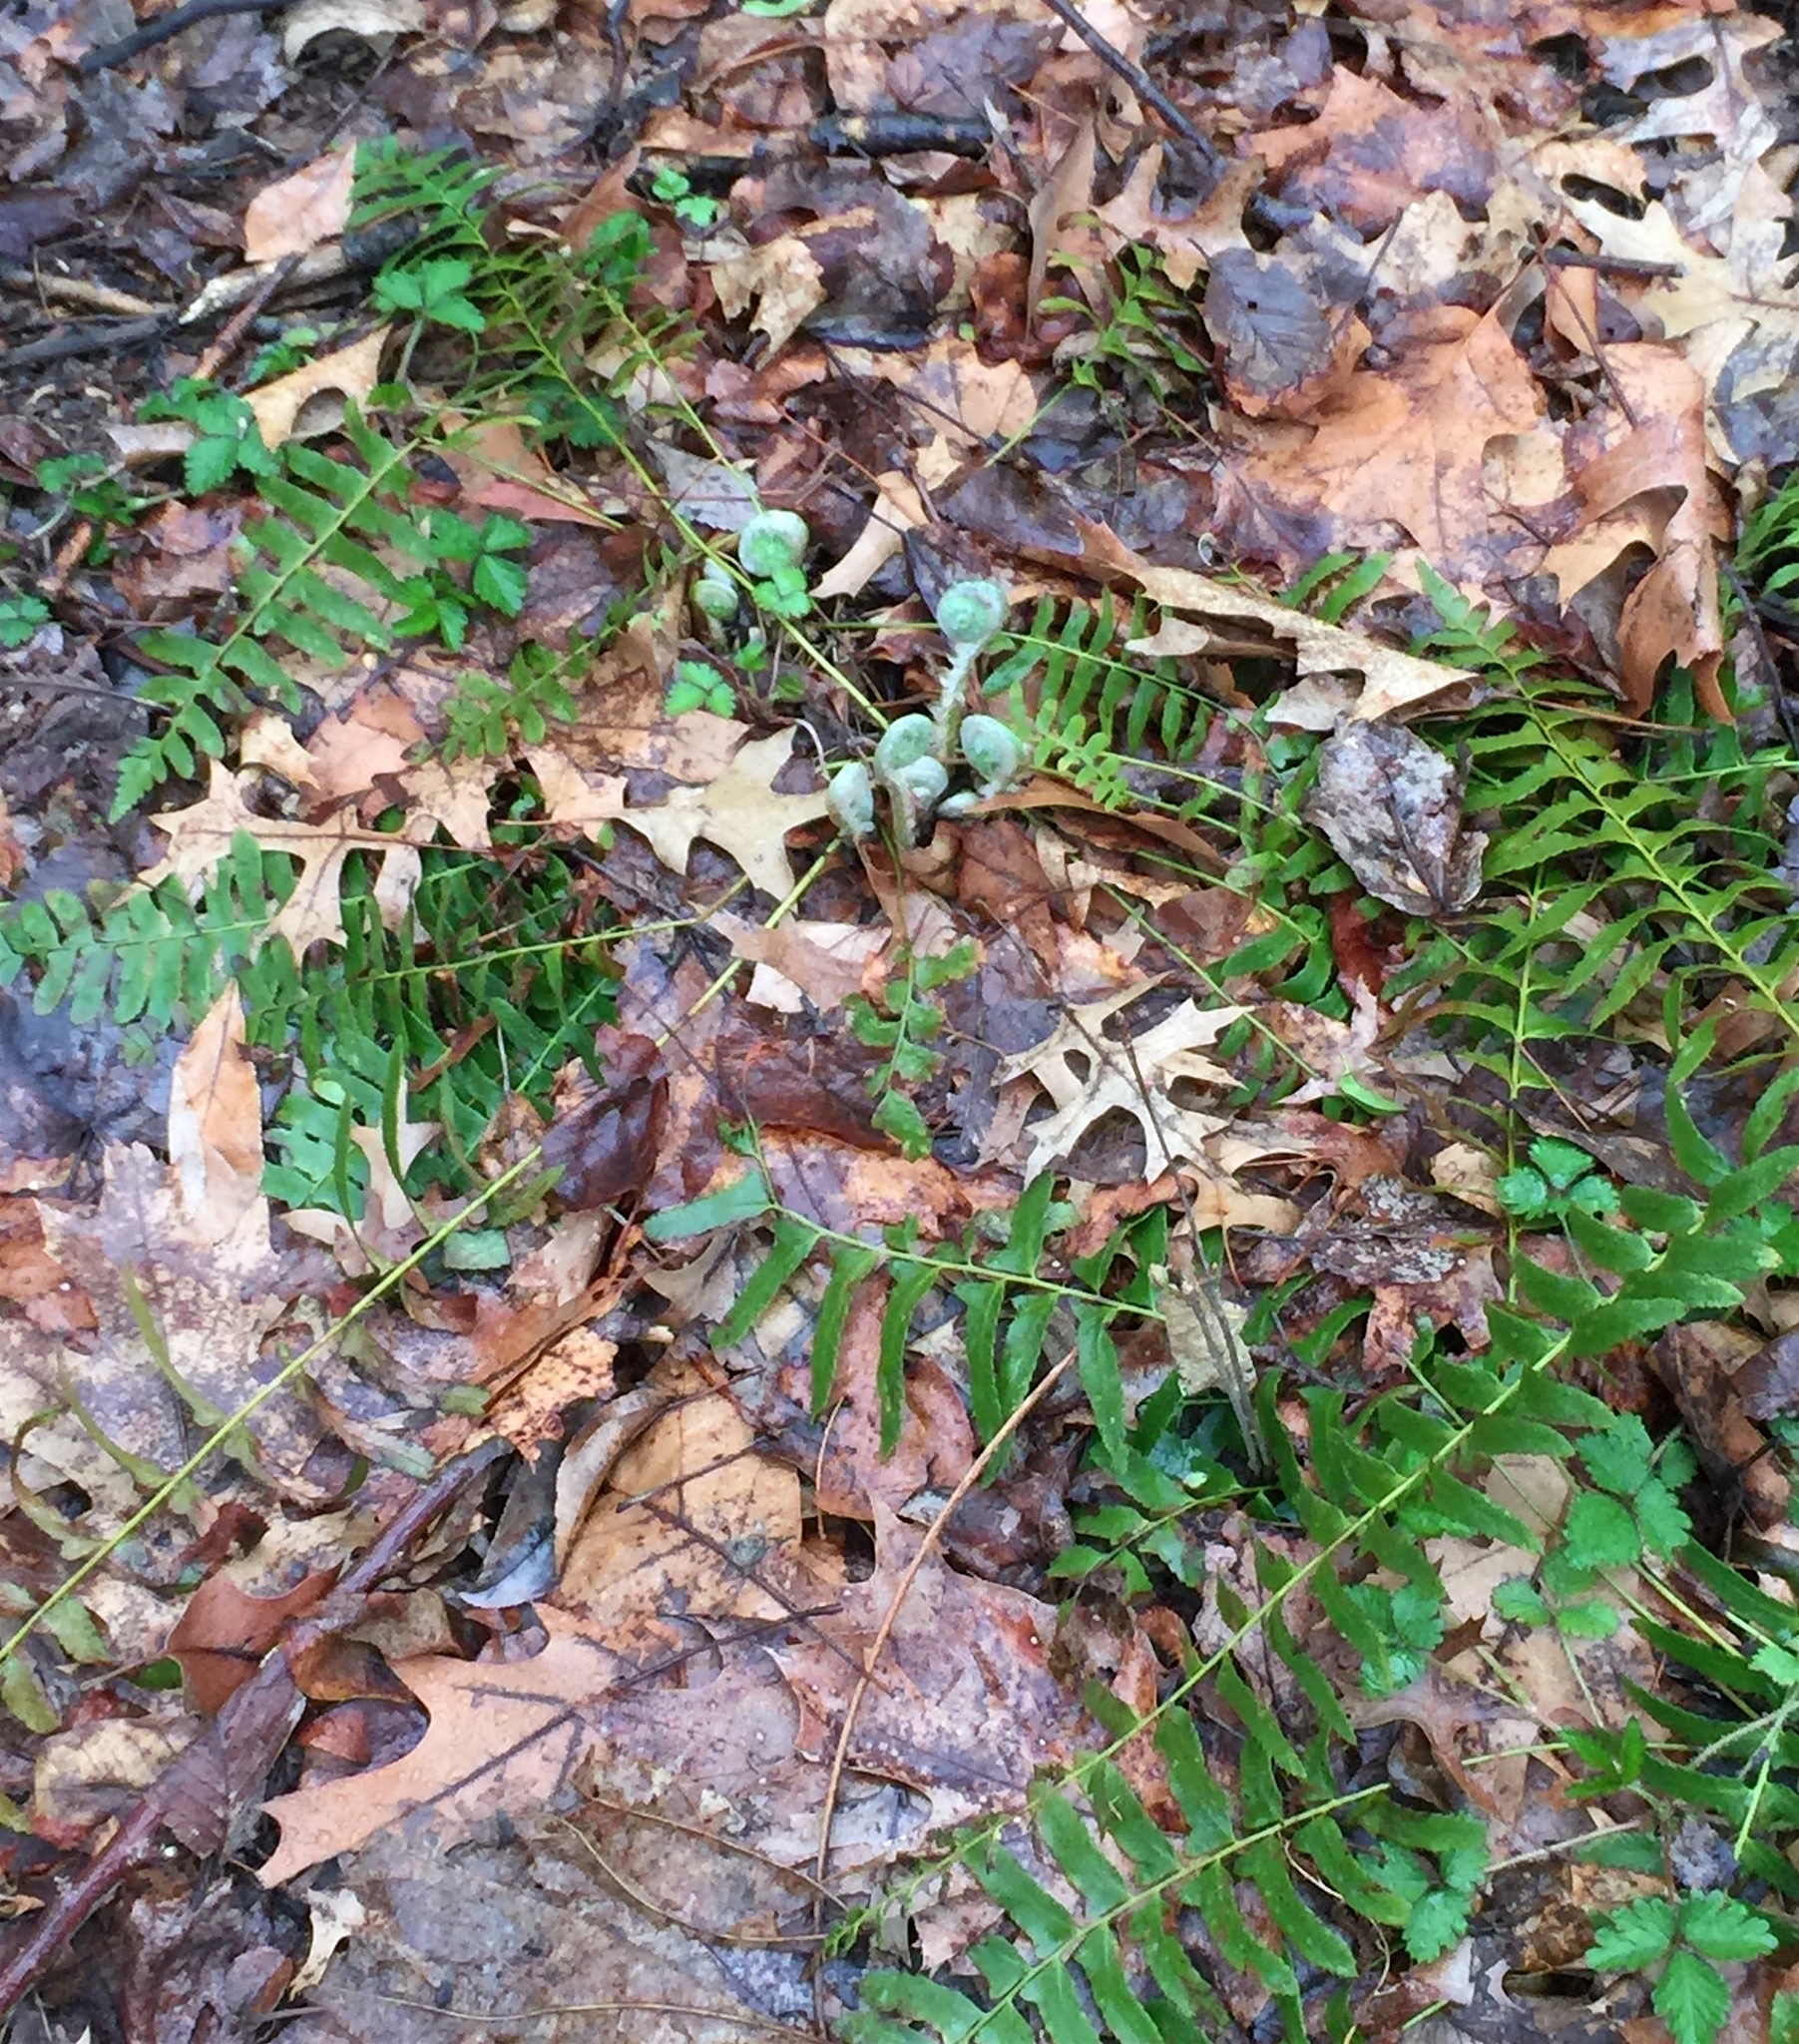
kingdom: Plantae
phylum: Tracheophyta
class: Polypodiopsida
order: Polypodiales
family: Dryopteridaceae
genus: Polystichum
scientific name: Polystichum acrostichoides
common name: Christmas fern
